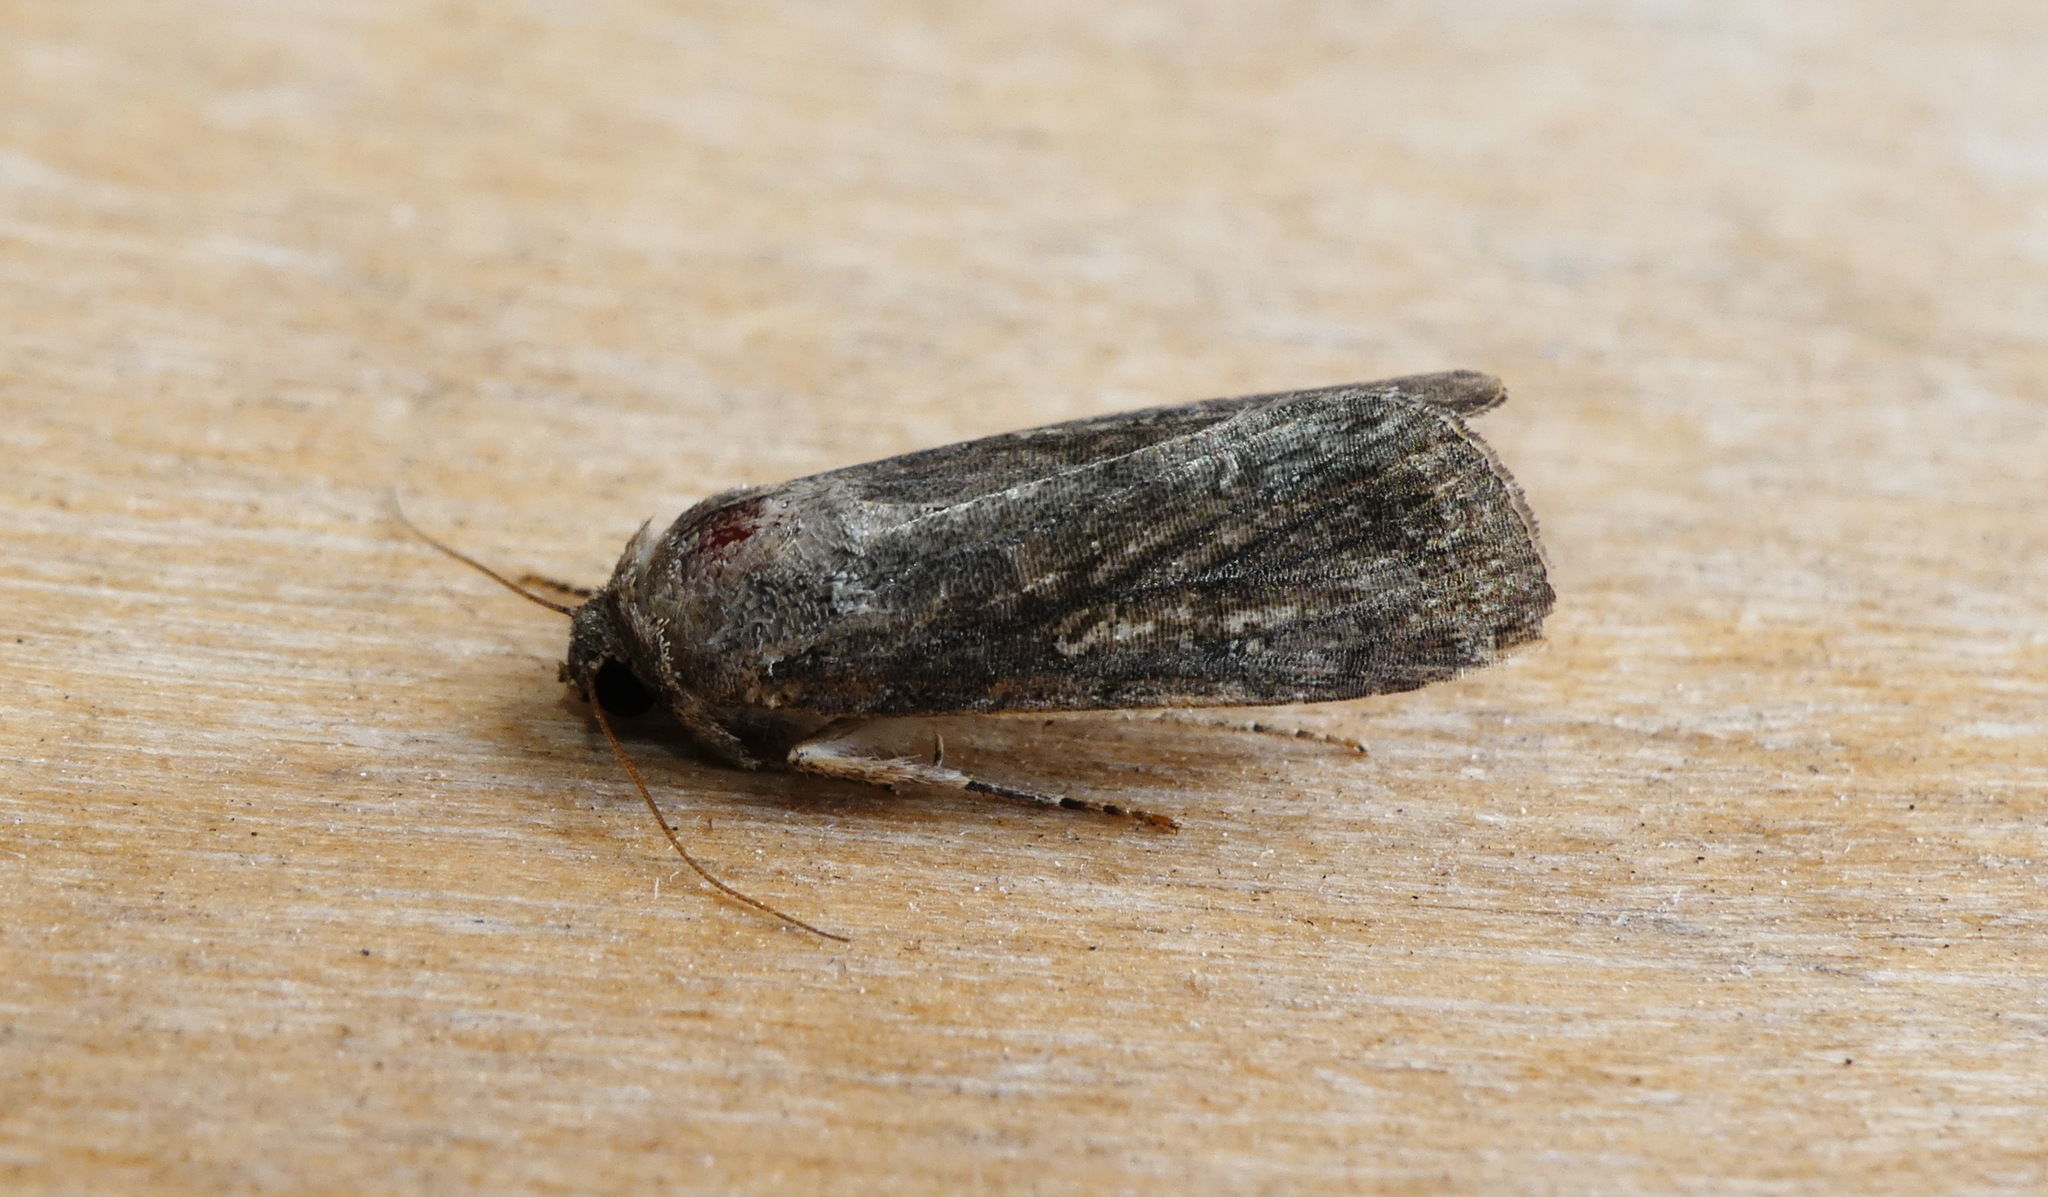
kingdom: Animalia
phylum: Arthropoda
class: Insecta
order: Lepidoptera
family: Noctuidae
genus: Spodoptera
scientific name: Spodoptera frugiperda
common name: Fall armyworm
